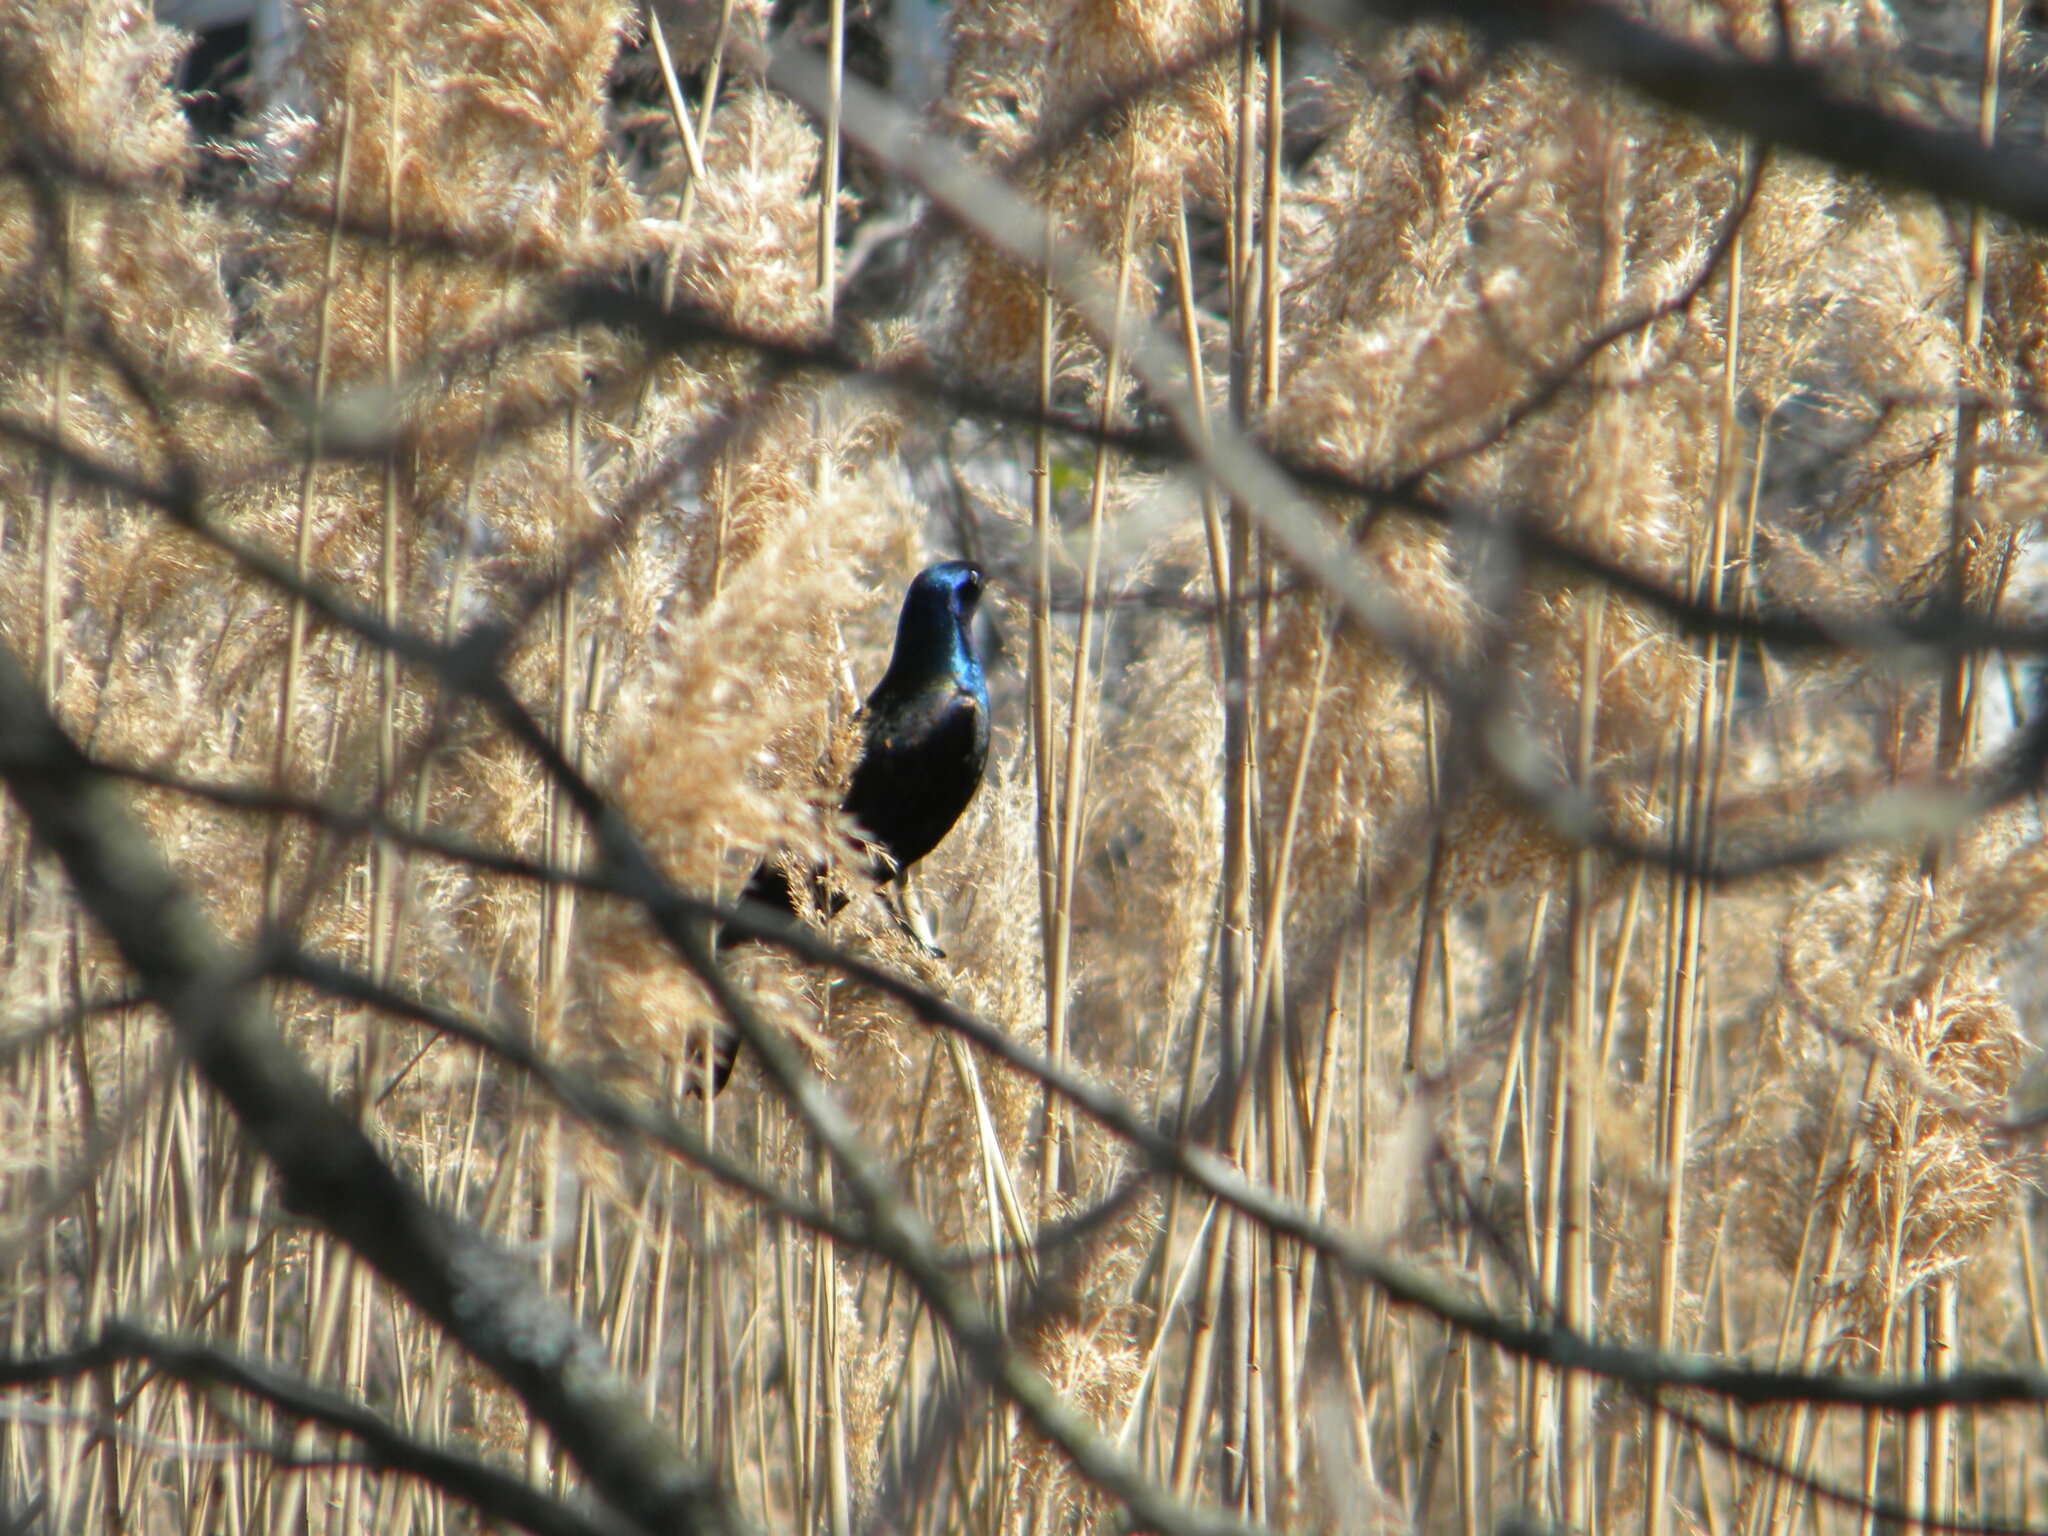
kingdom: Animalia
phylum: Chordata
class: Aves
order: Passeriformes
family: Icteridae
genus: Quiscalus
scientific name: Quiscalus quiscula
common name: Common grackle
